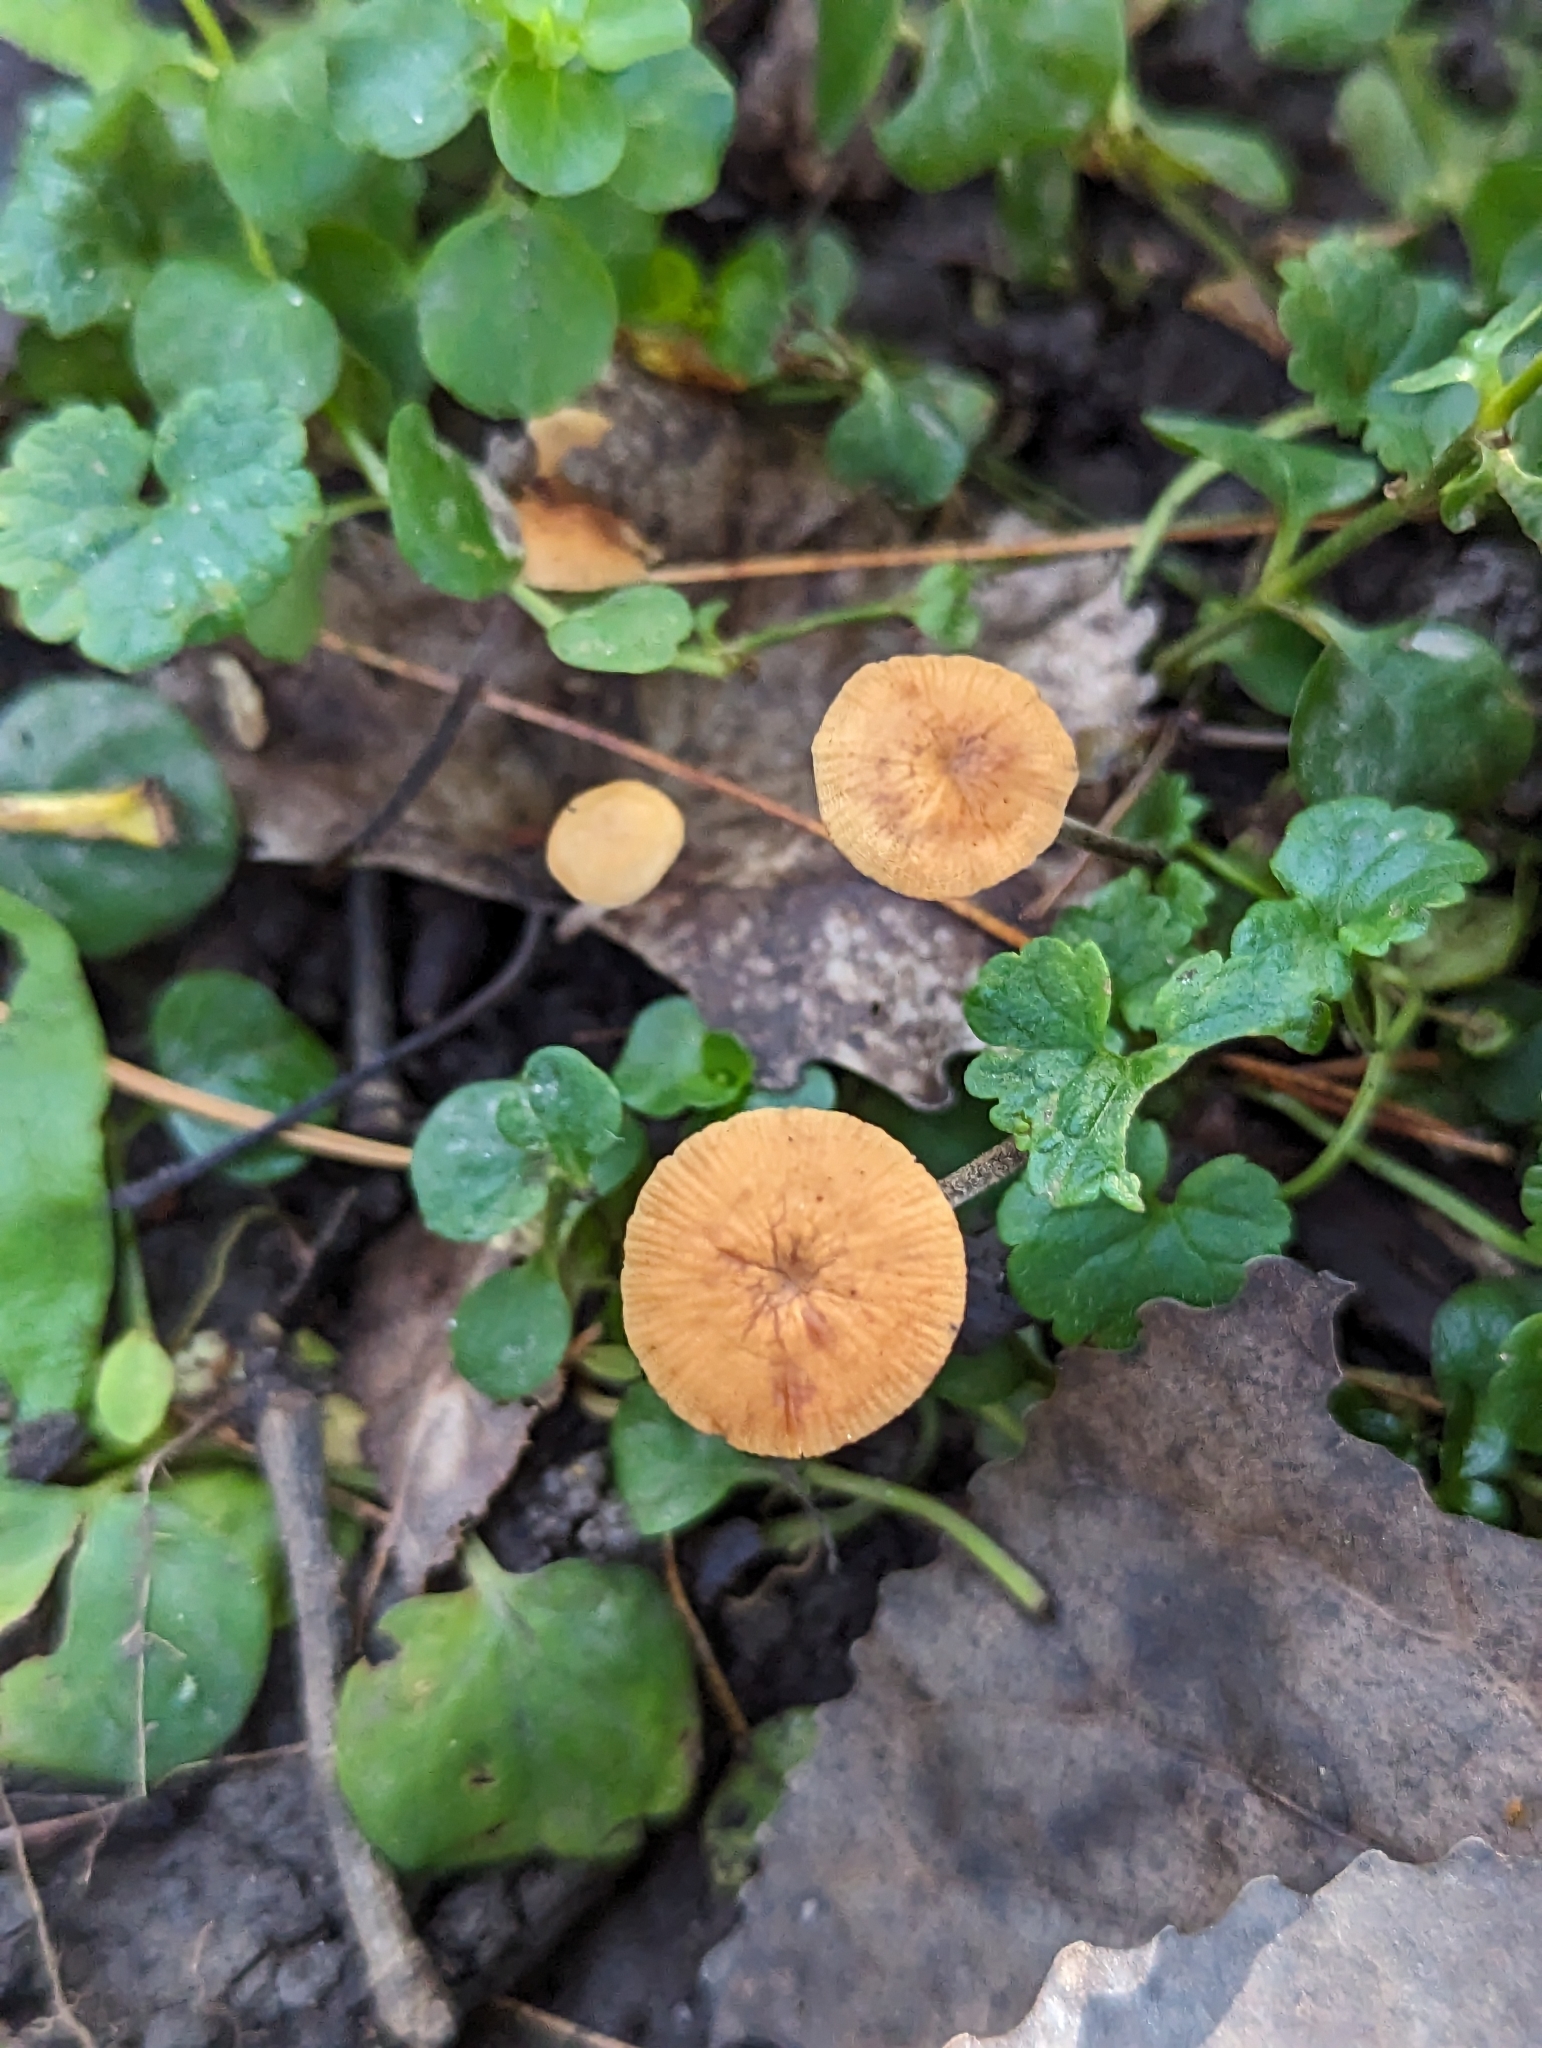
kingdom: Fungi
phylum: Basidiomycota
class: Agaricomycetes
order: Agaricales
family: Physalacriaceae
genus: Rhizomarasmius
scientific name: Rhizomarasmius pyrrhocephalus
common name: Hairy long stem marasmius
